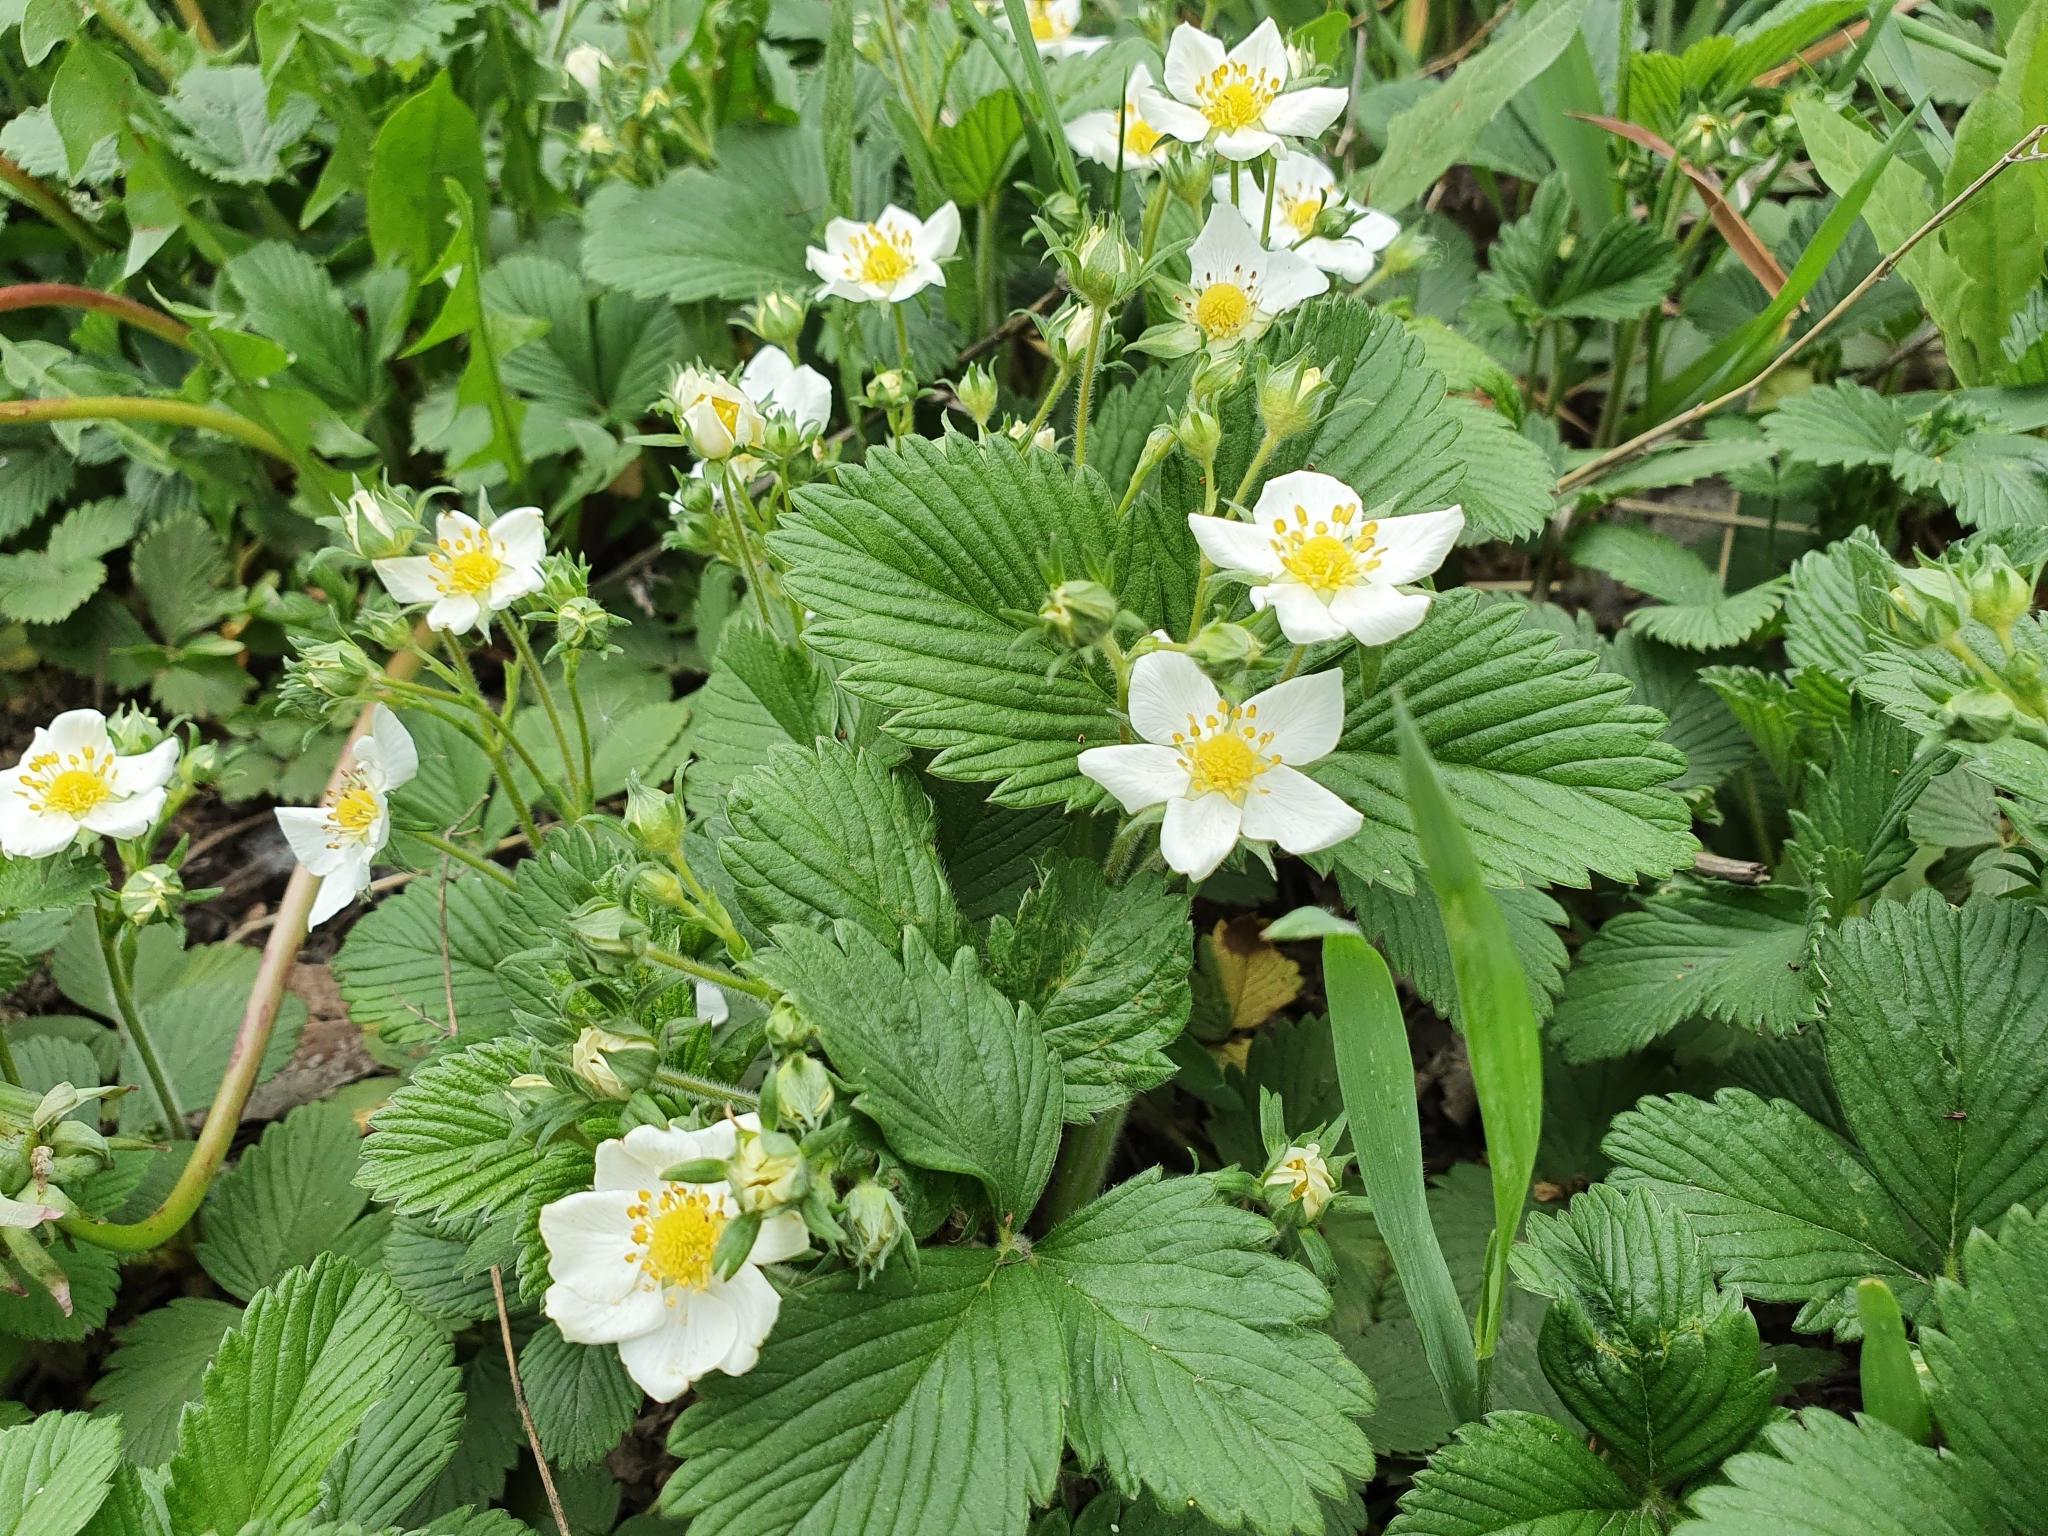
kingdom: Plantae
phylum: Tracheophyta
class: Magnoliopsida
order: Rosales
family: Rosaceae
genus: Fragaria
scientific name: Fragaria viridis
